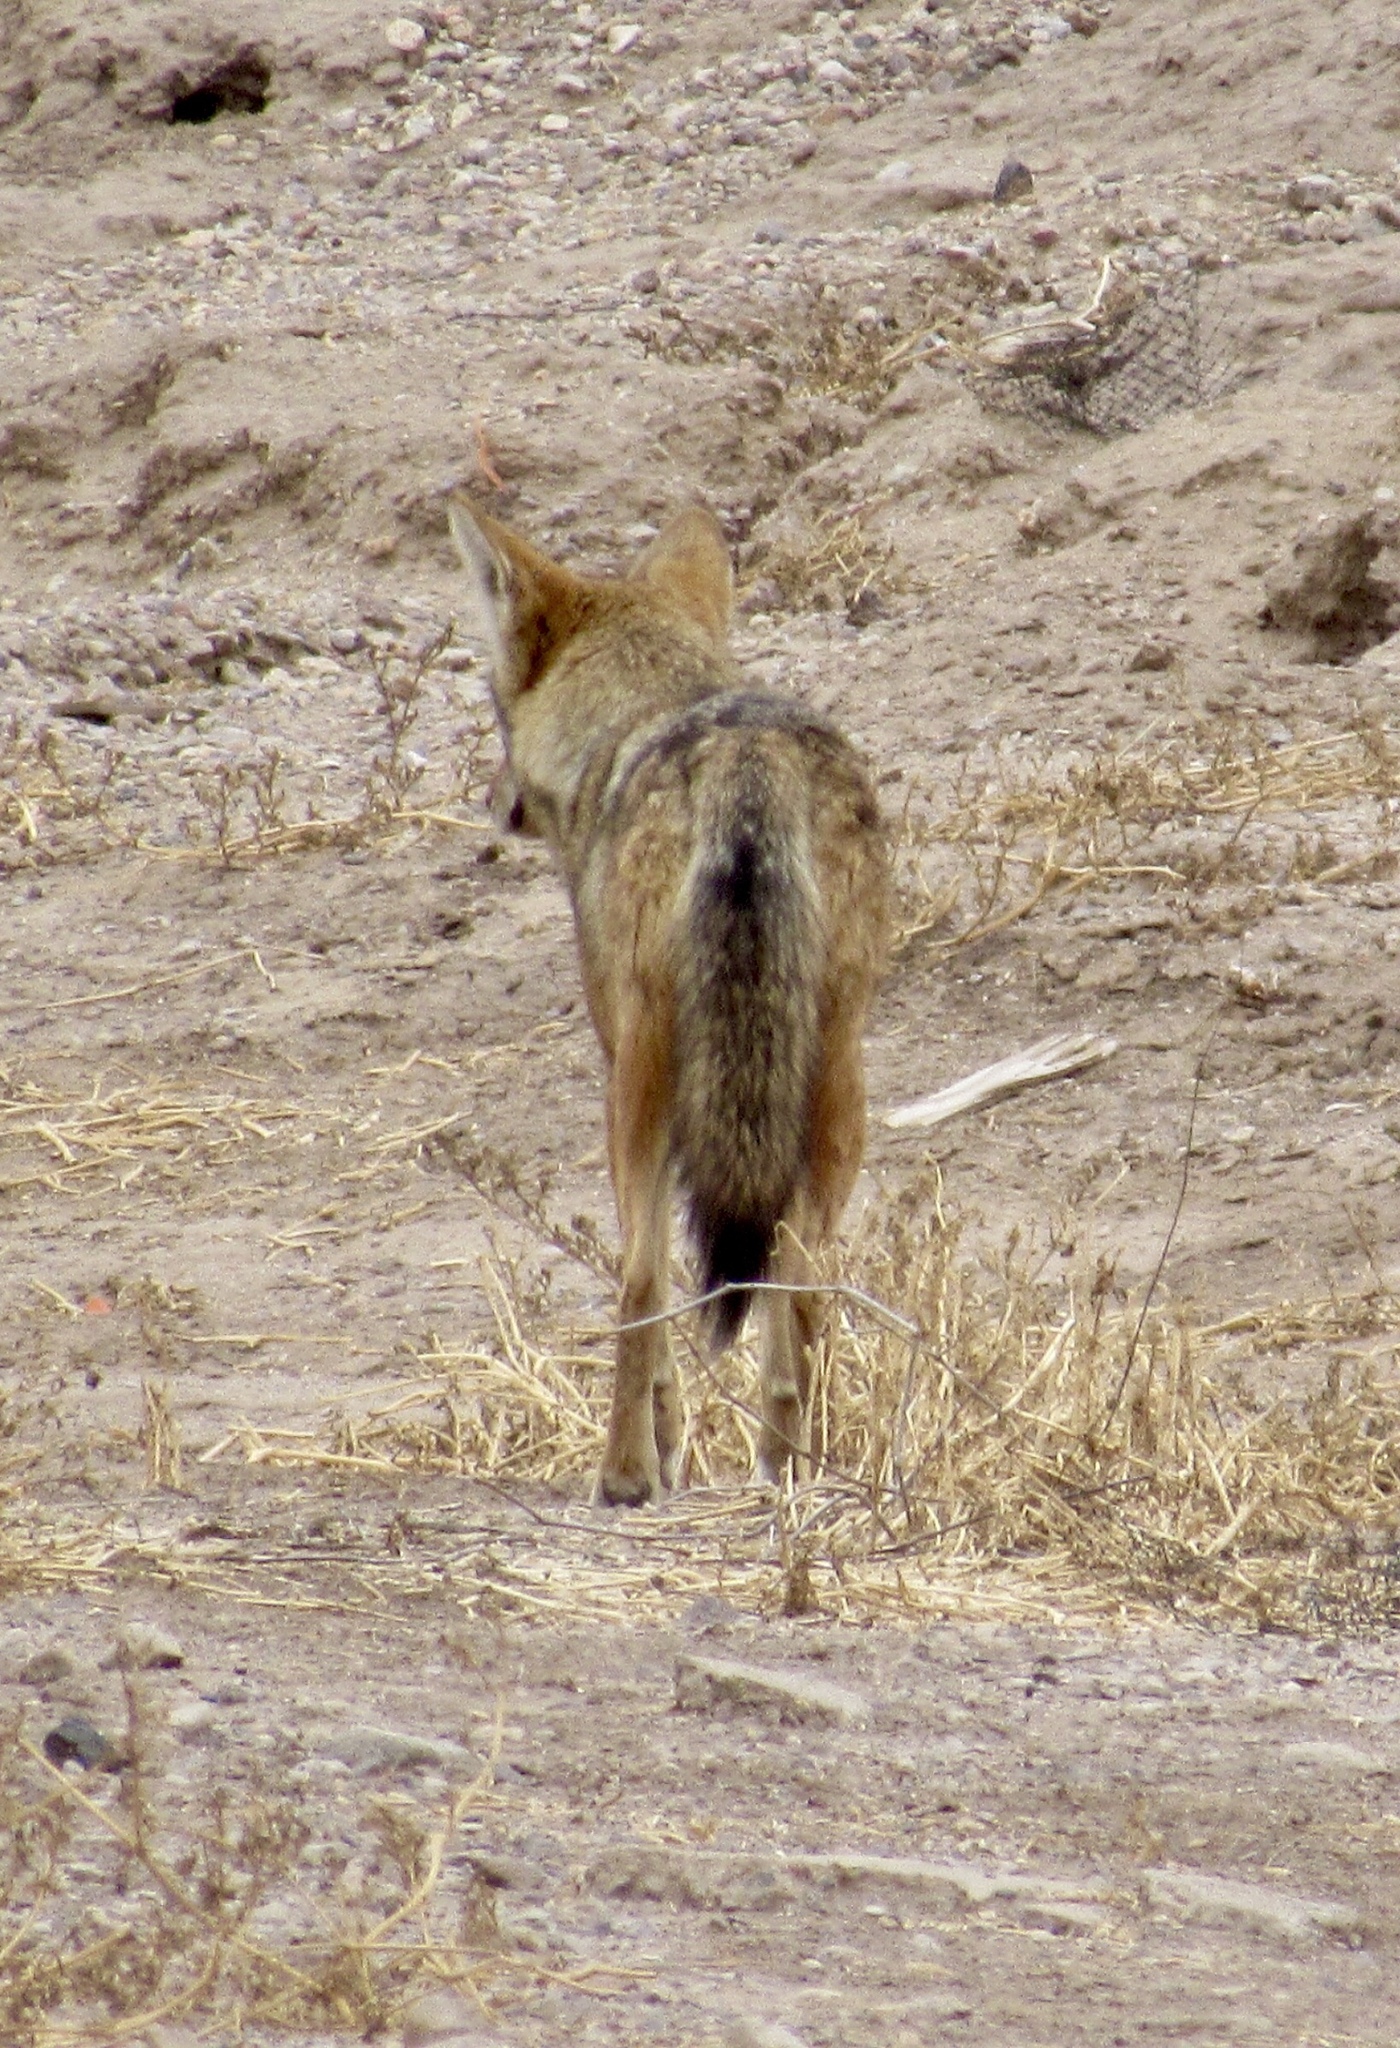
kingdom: Animalia
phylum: Chordata
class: Mammalia
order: Carnivora
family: Canidae
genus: Canis
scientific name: Canis latrans
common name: Coyote
